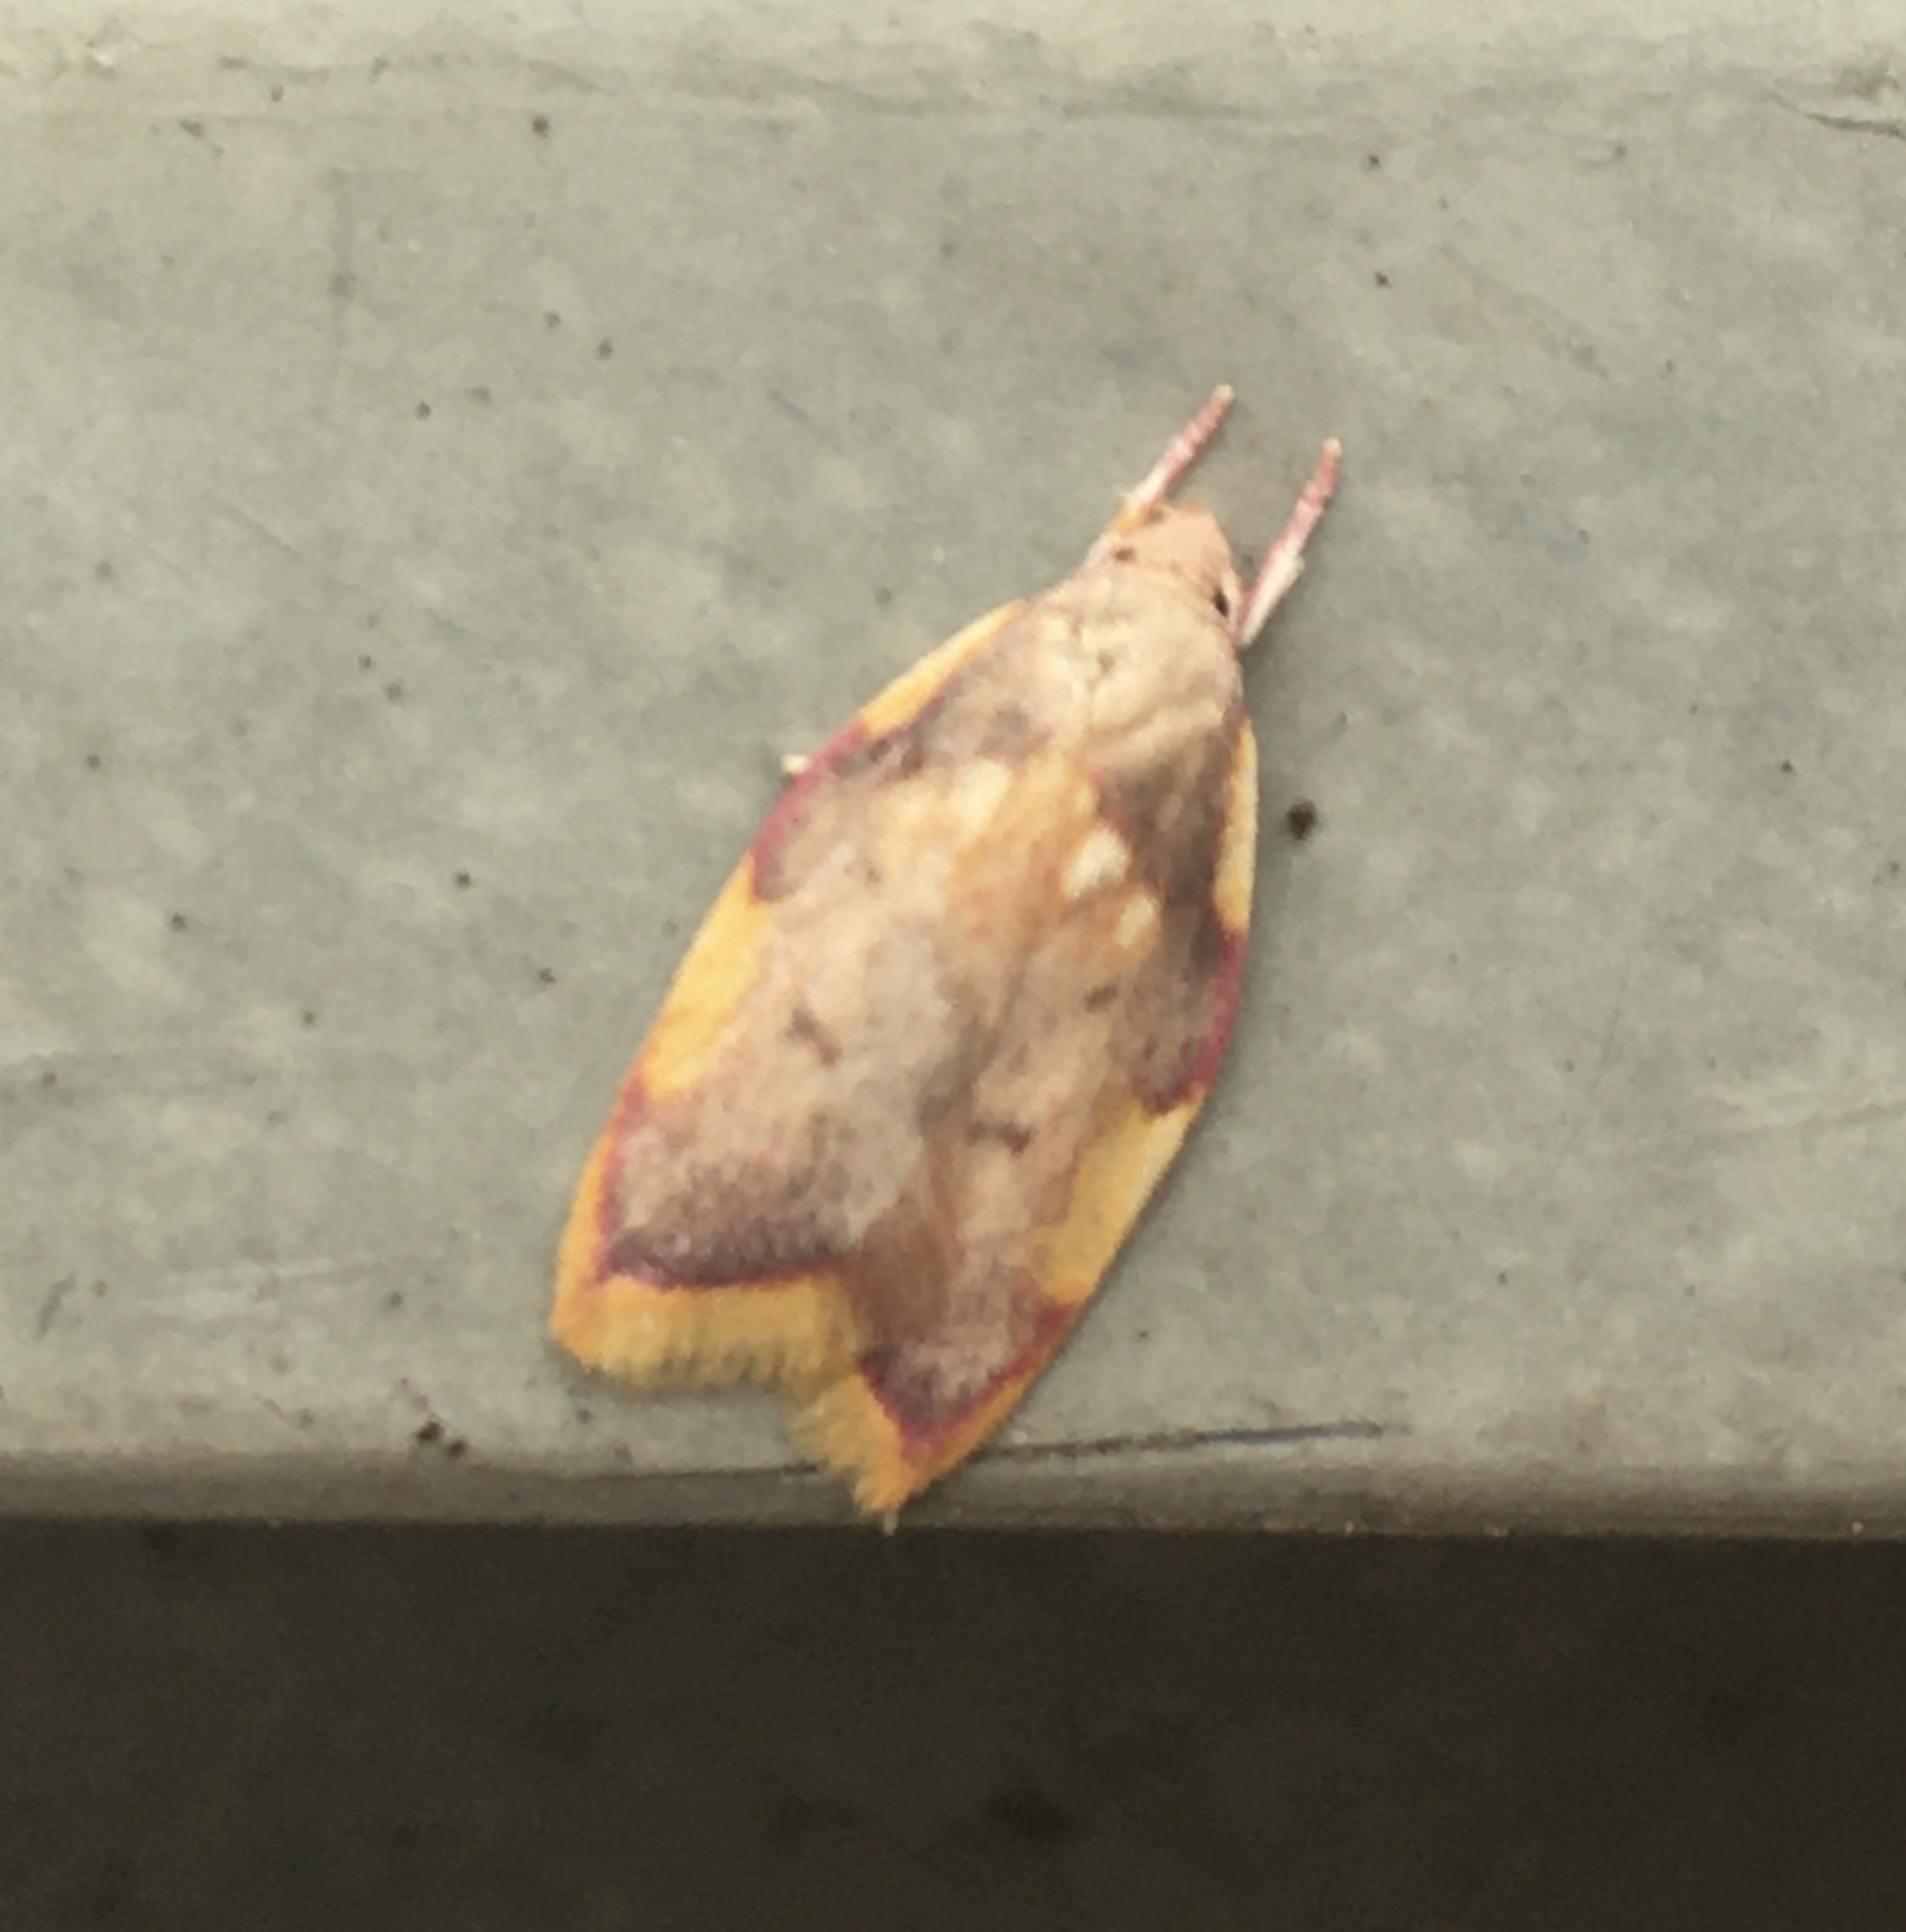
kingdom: Animalia
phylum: Arthropoda
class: Insecta
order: Lepidoptera
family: Peleopodidae
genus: Carcina
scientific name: Carcina quercana
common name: Moth
